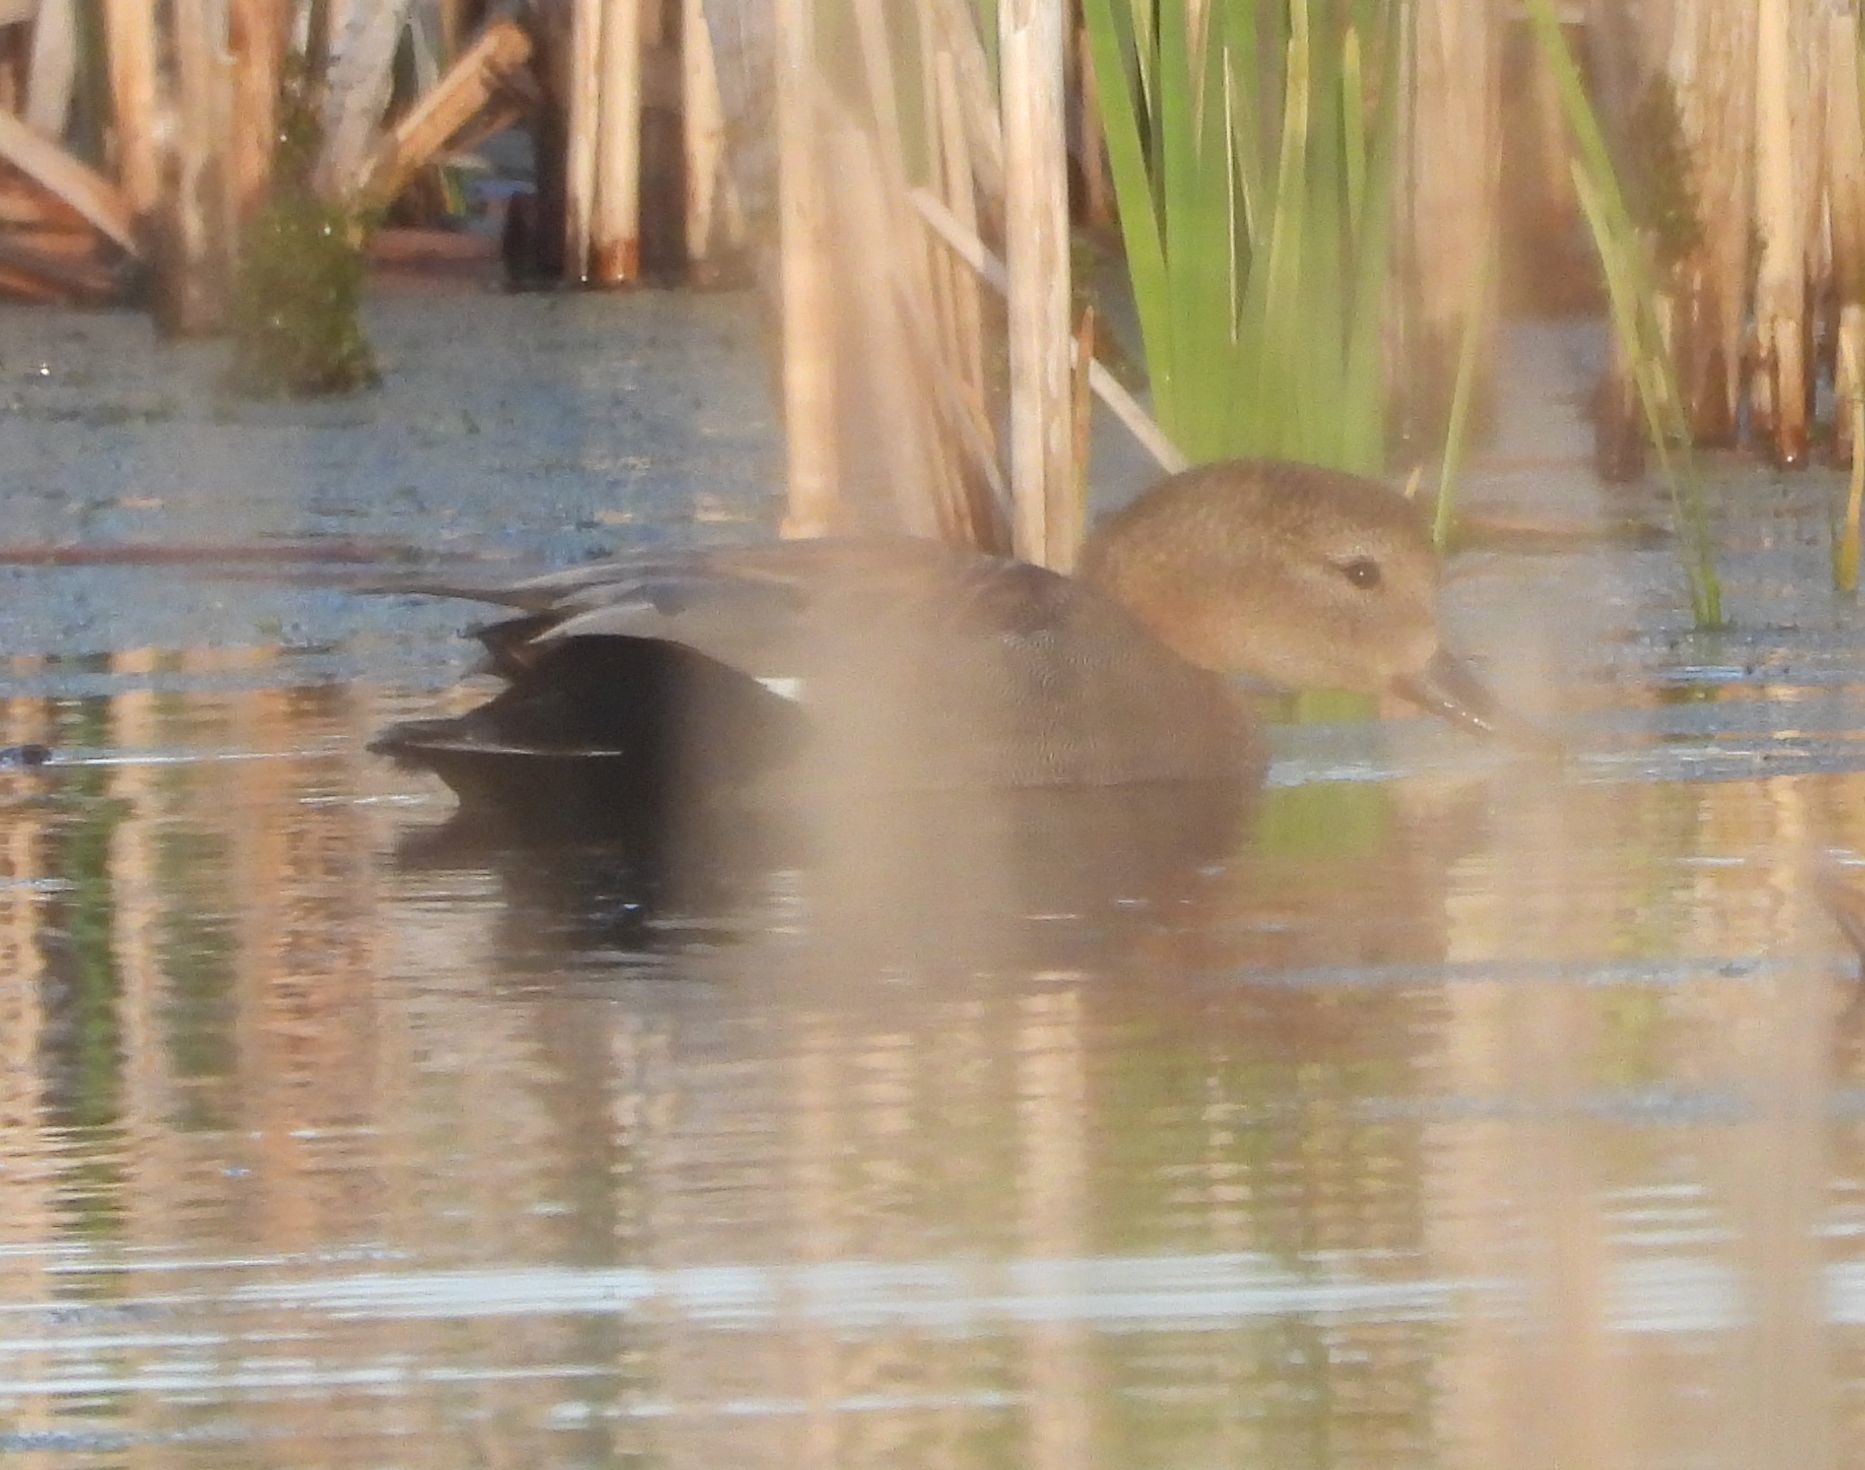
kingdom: Animalia
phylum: Chordata
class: Aves
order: Anseriformes
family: Anatidae
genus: Mareca
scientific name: Mareca strepera
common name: Gadwall
